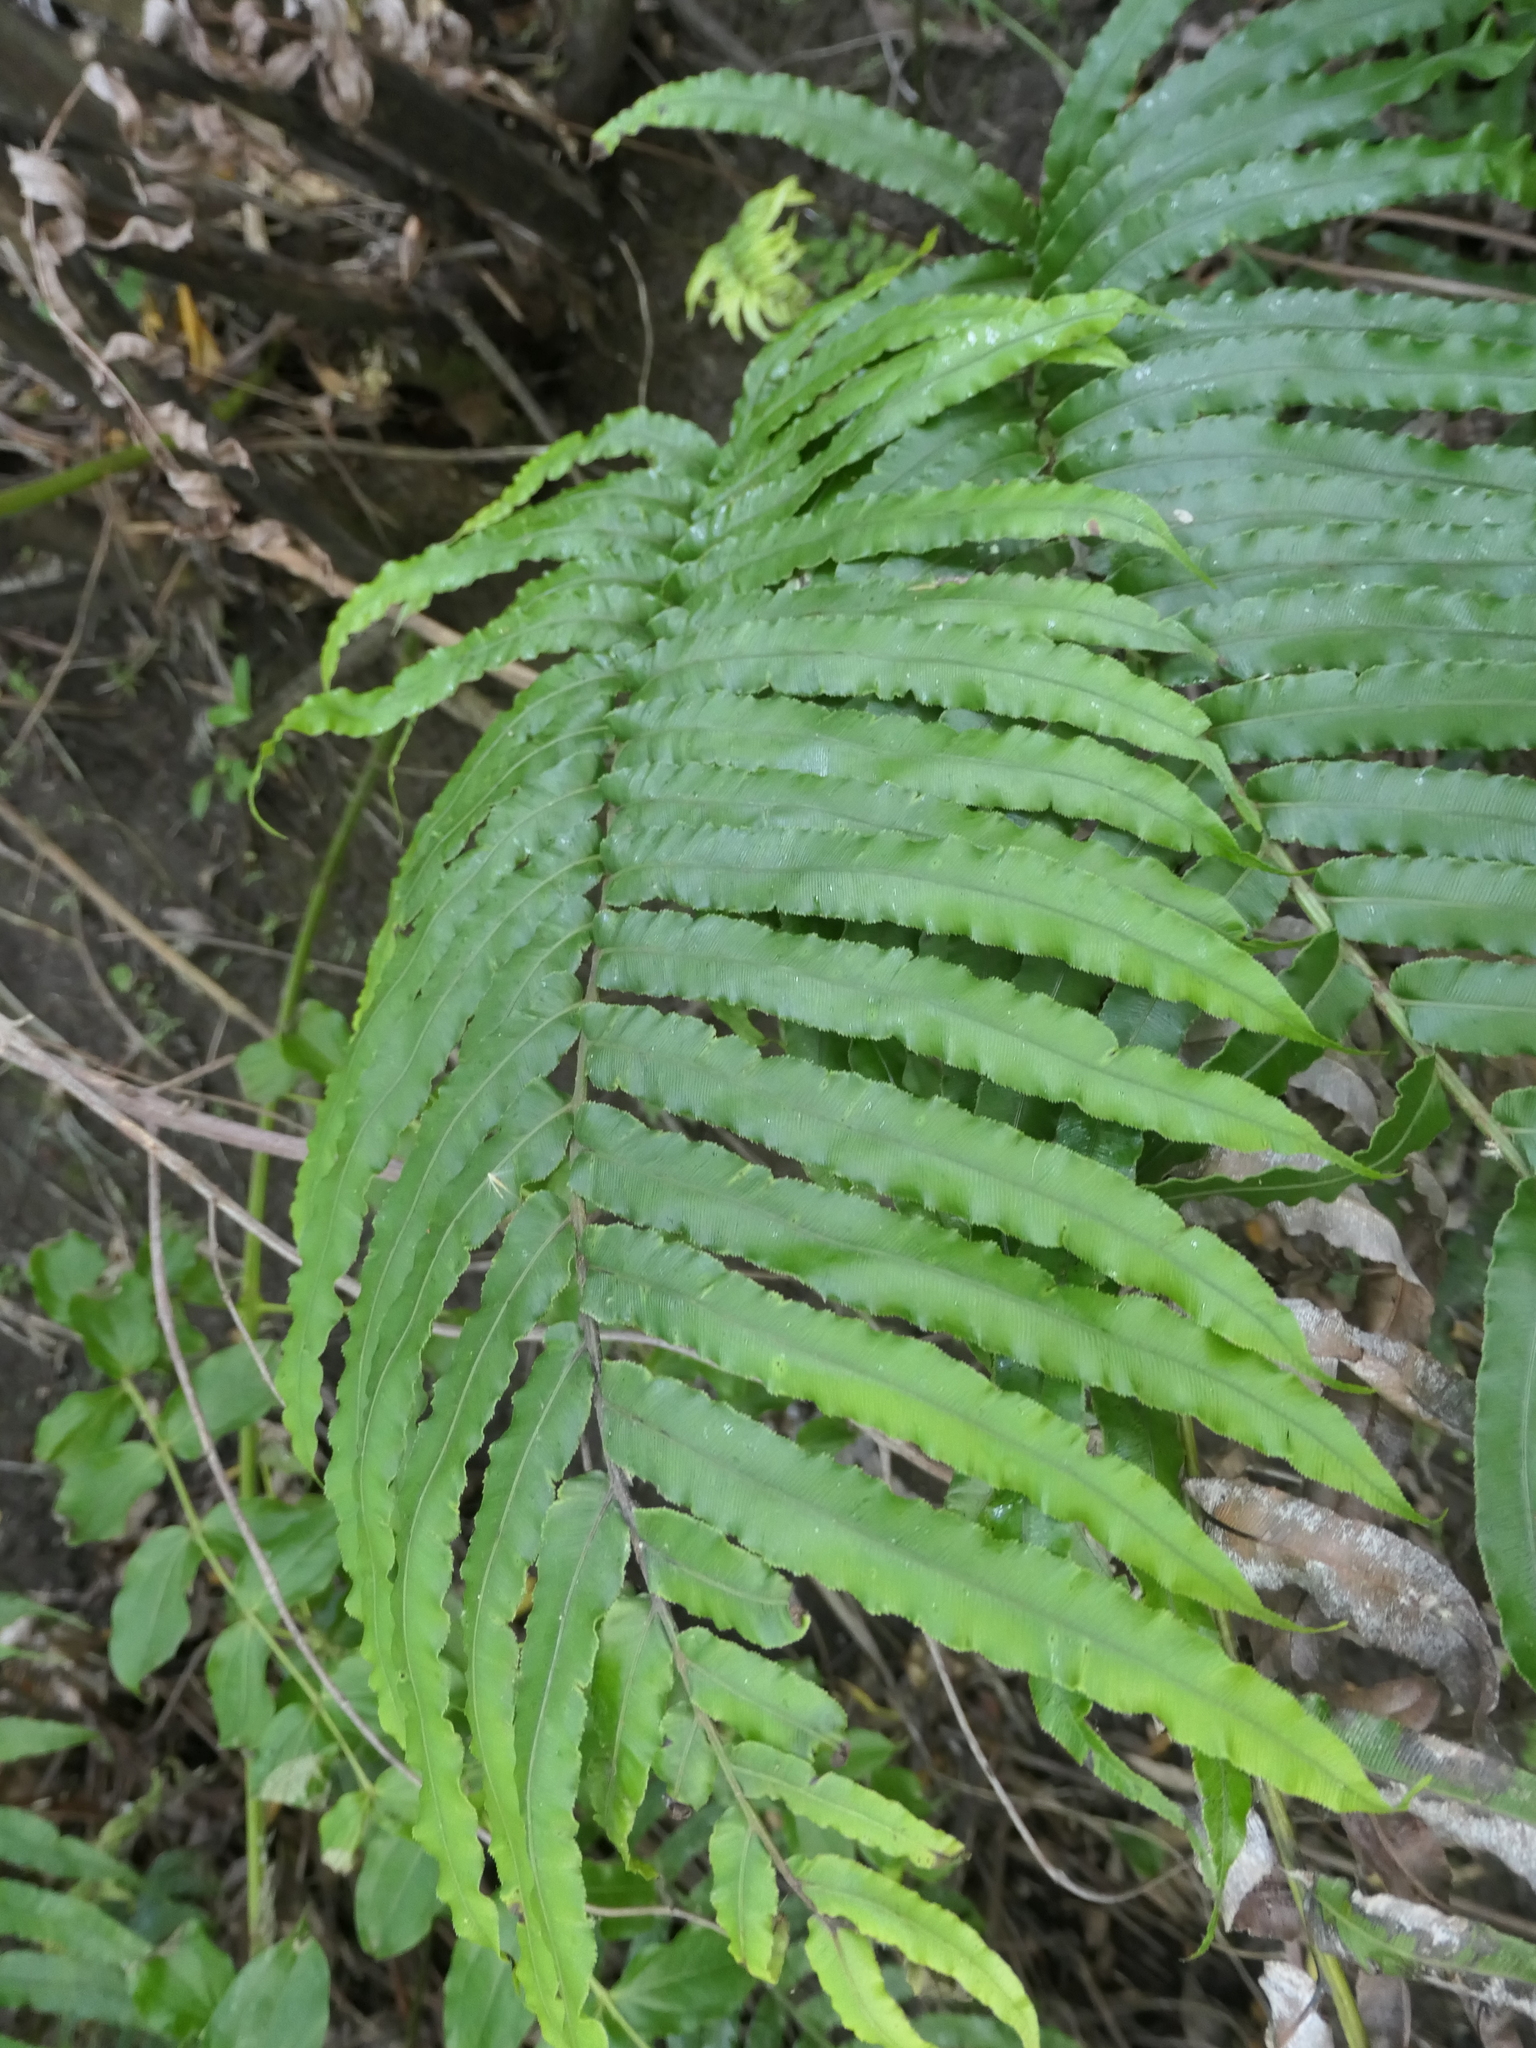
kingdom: Plantae
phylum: Tracheophyta
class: Polypodiopsida
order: Polypodiales
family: Blechnaceae
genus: Parablechnum
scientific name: Parablechnum triangularifolium
